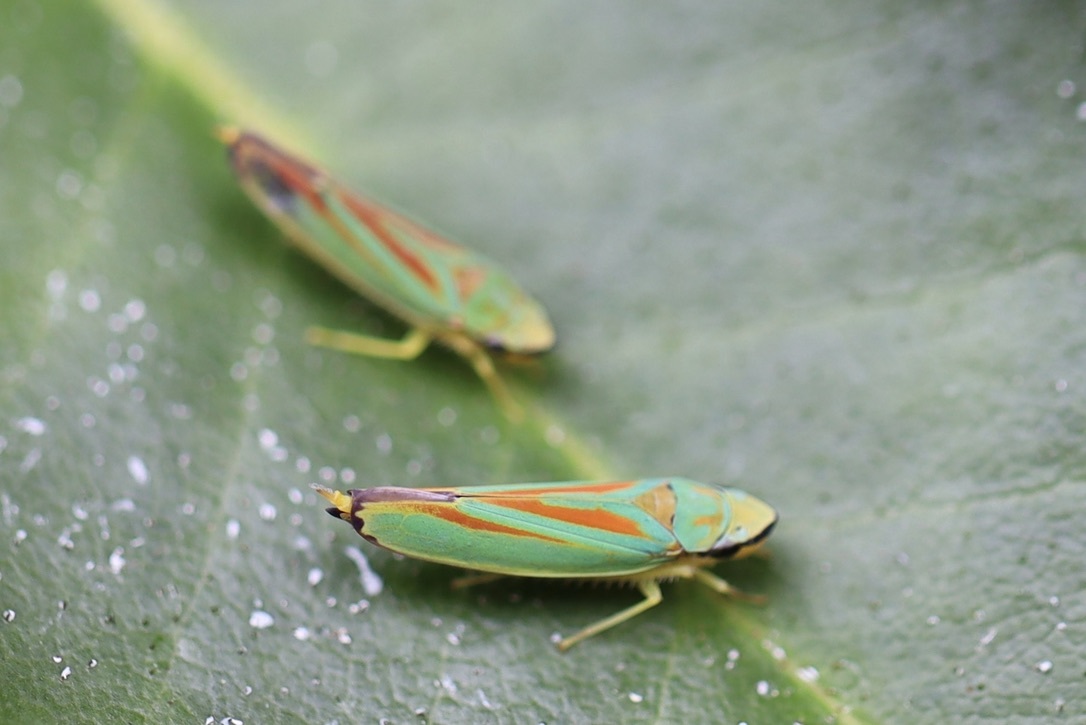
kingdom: Animalia
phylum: Arthropoda
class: Insecta
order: Hemiptera
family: Cicadellidae
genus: Graphocephala
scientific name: Graphocephala fennahi
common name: Rhododendron leafhopper
